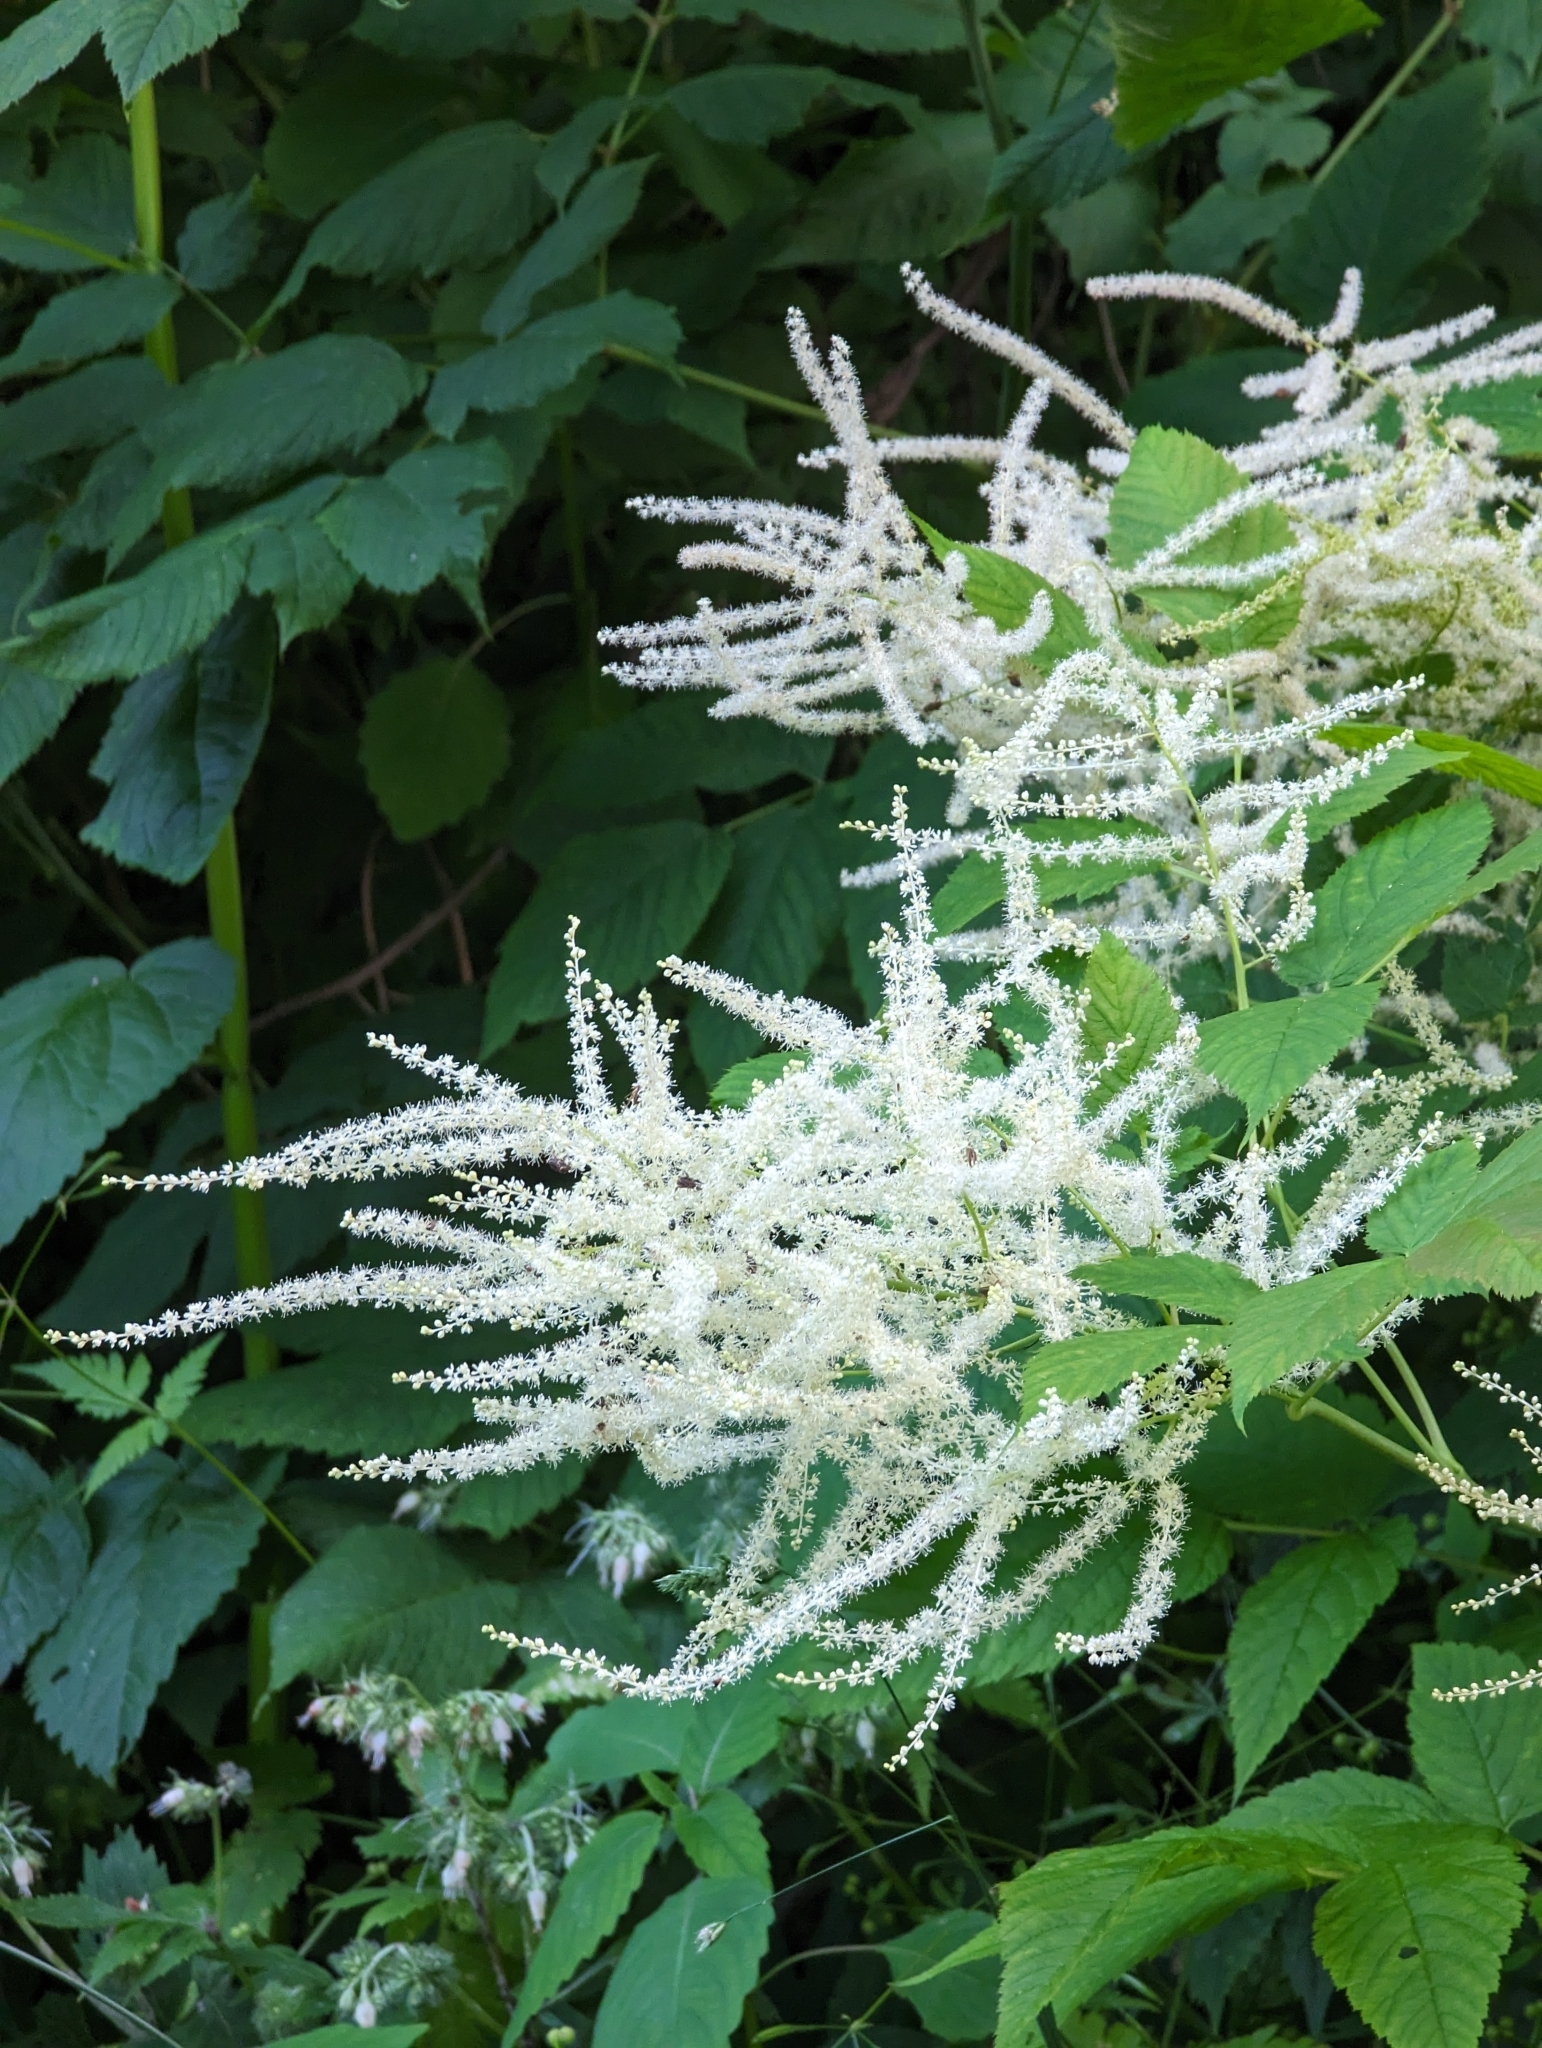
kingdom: Plantae
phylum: Tracheophyta
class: Magnoliopsida
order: Rosales
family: Rosaceae
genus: Aruncus
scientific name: Aruncus dioicus
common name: Buck's-beard
